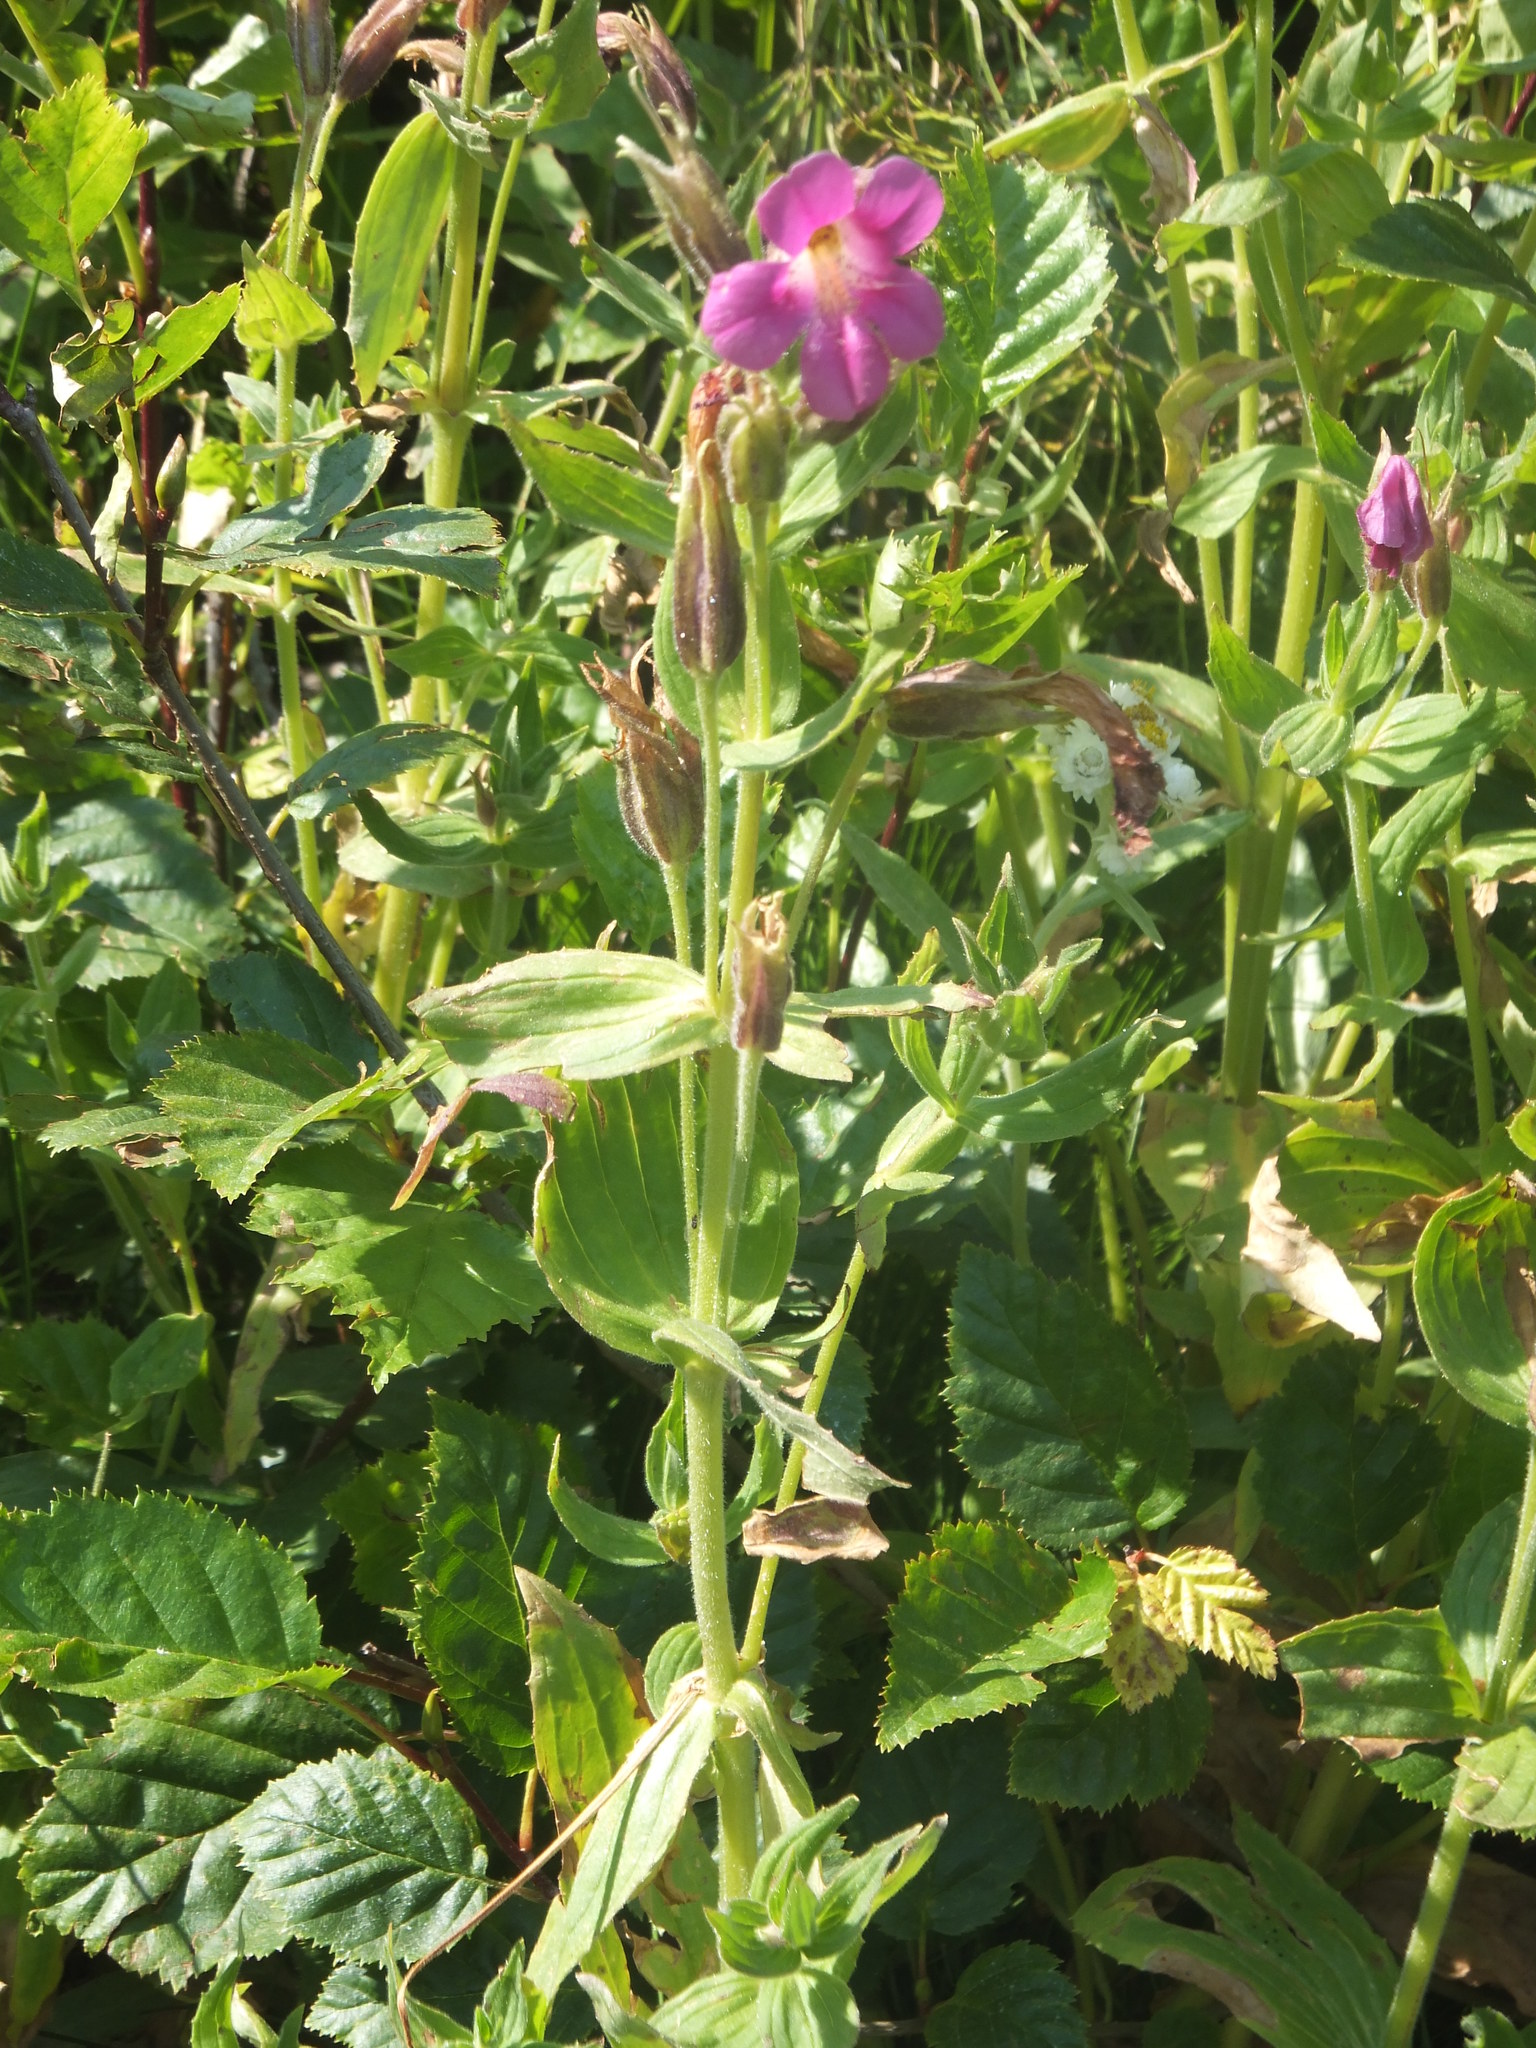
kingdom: Plantae
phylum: Tracheophyta
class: Magnoliopsida
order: Lamiales
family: Phrymaceae
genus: Erythranthe
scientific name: Erythranthe lewisii
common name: Lewis's monkey-flower
